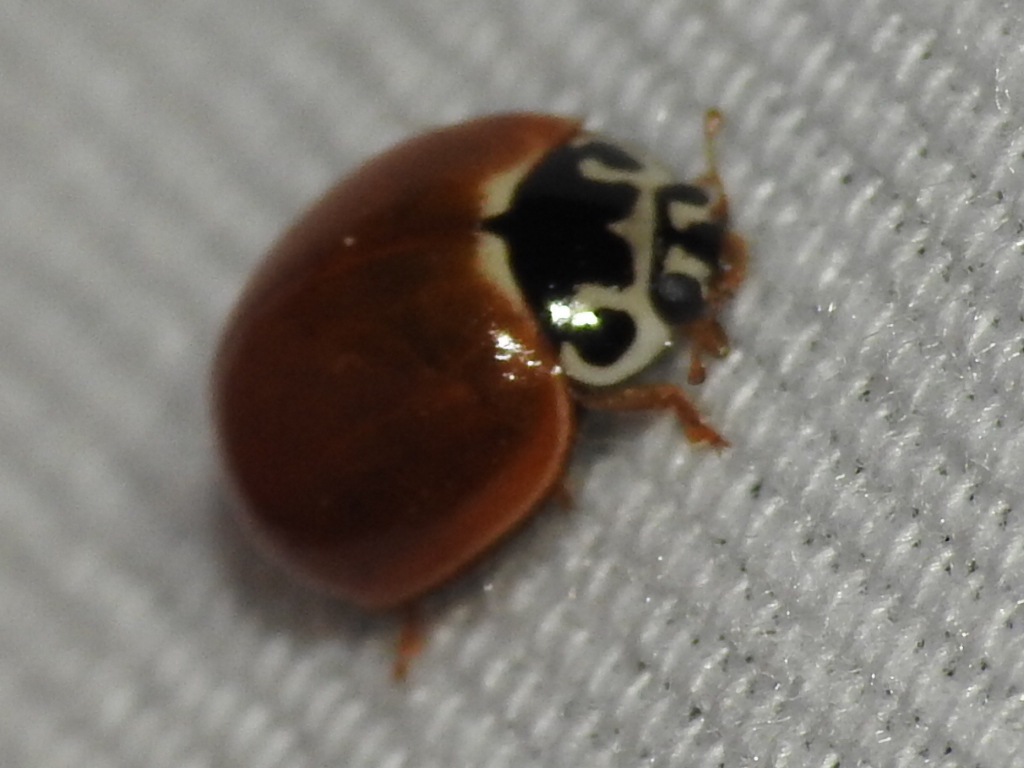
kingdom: Animalia
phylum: Arthropoda
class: Insecta
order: Coleoptera
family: Coccinellidae
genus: Cycloneda
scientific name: Cycloneda munda
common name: Polished lady beetle
